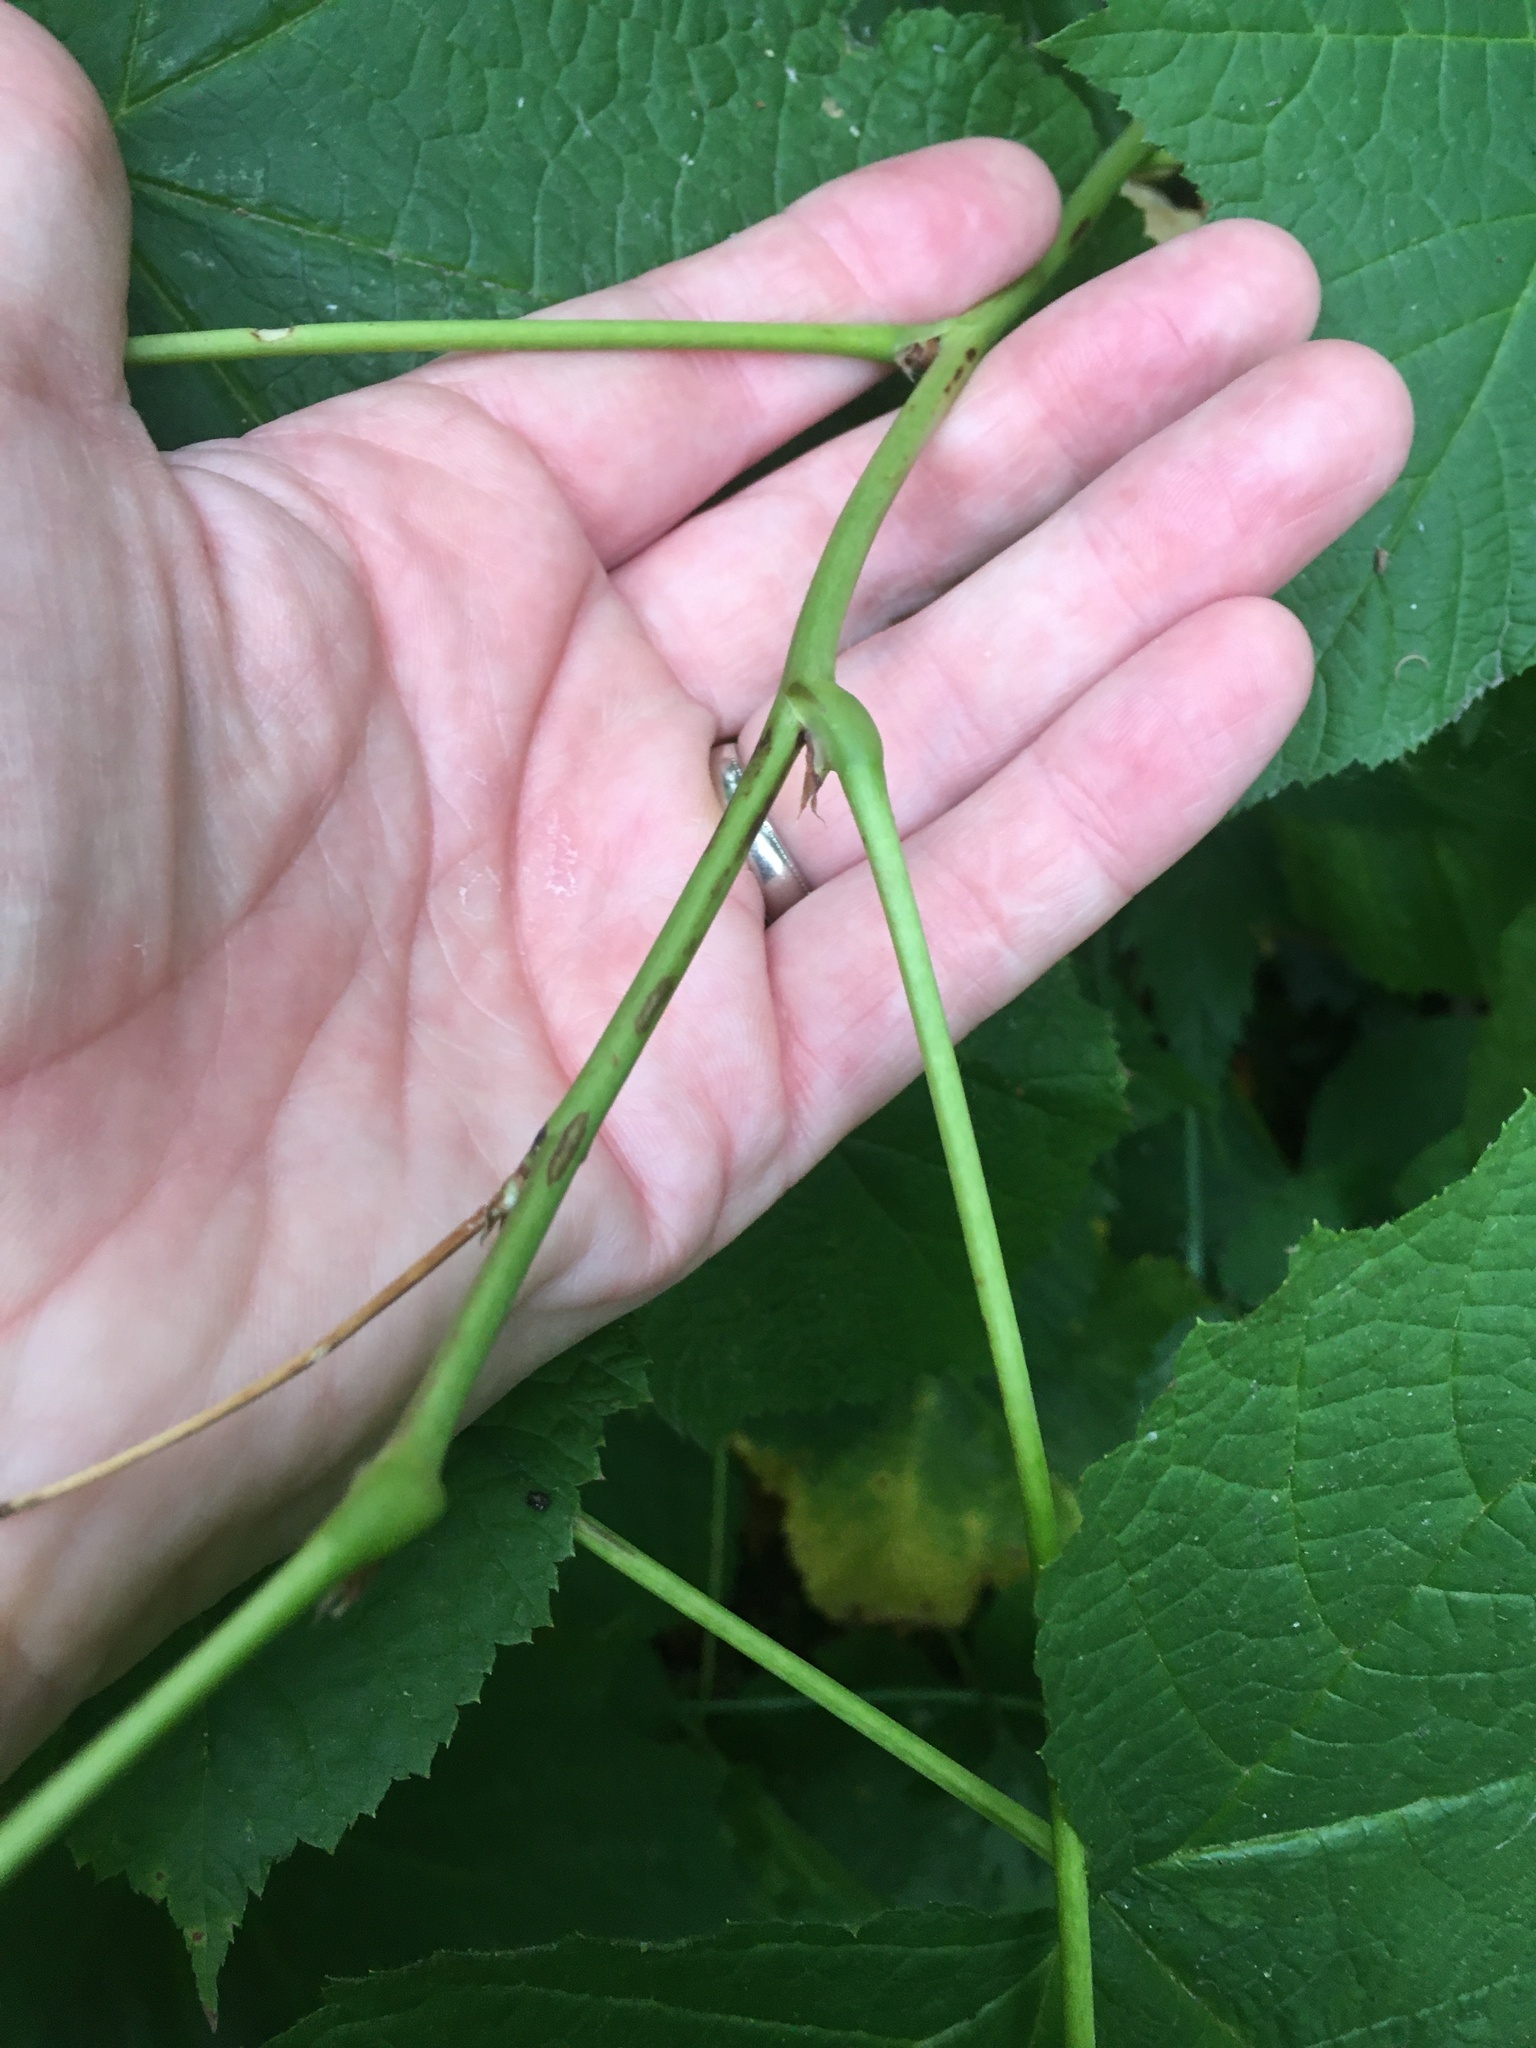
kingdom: Plantae
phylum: Tracheophyta
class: Magnoliopsida
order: Asterales
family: Asteraceae
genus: Mycelis
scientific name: Mycelis muralis
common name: Wall lettuce
